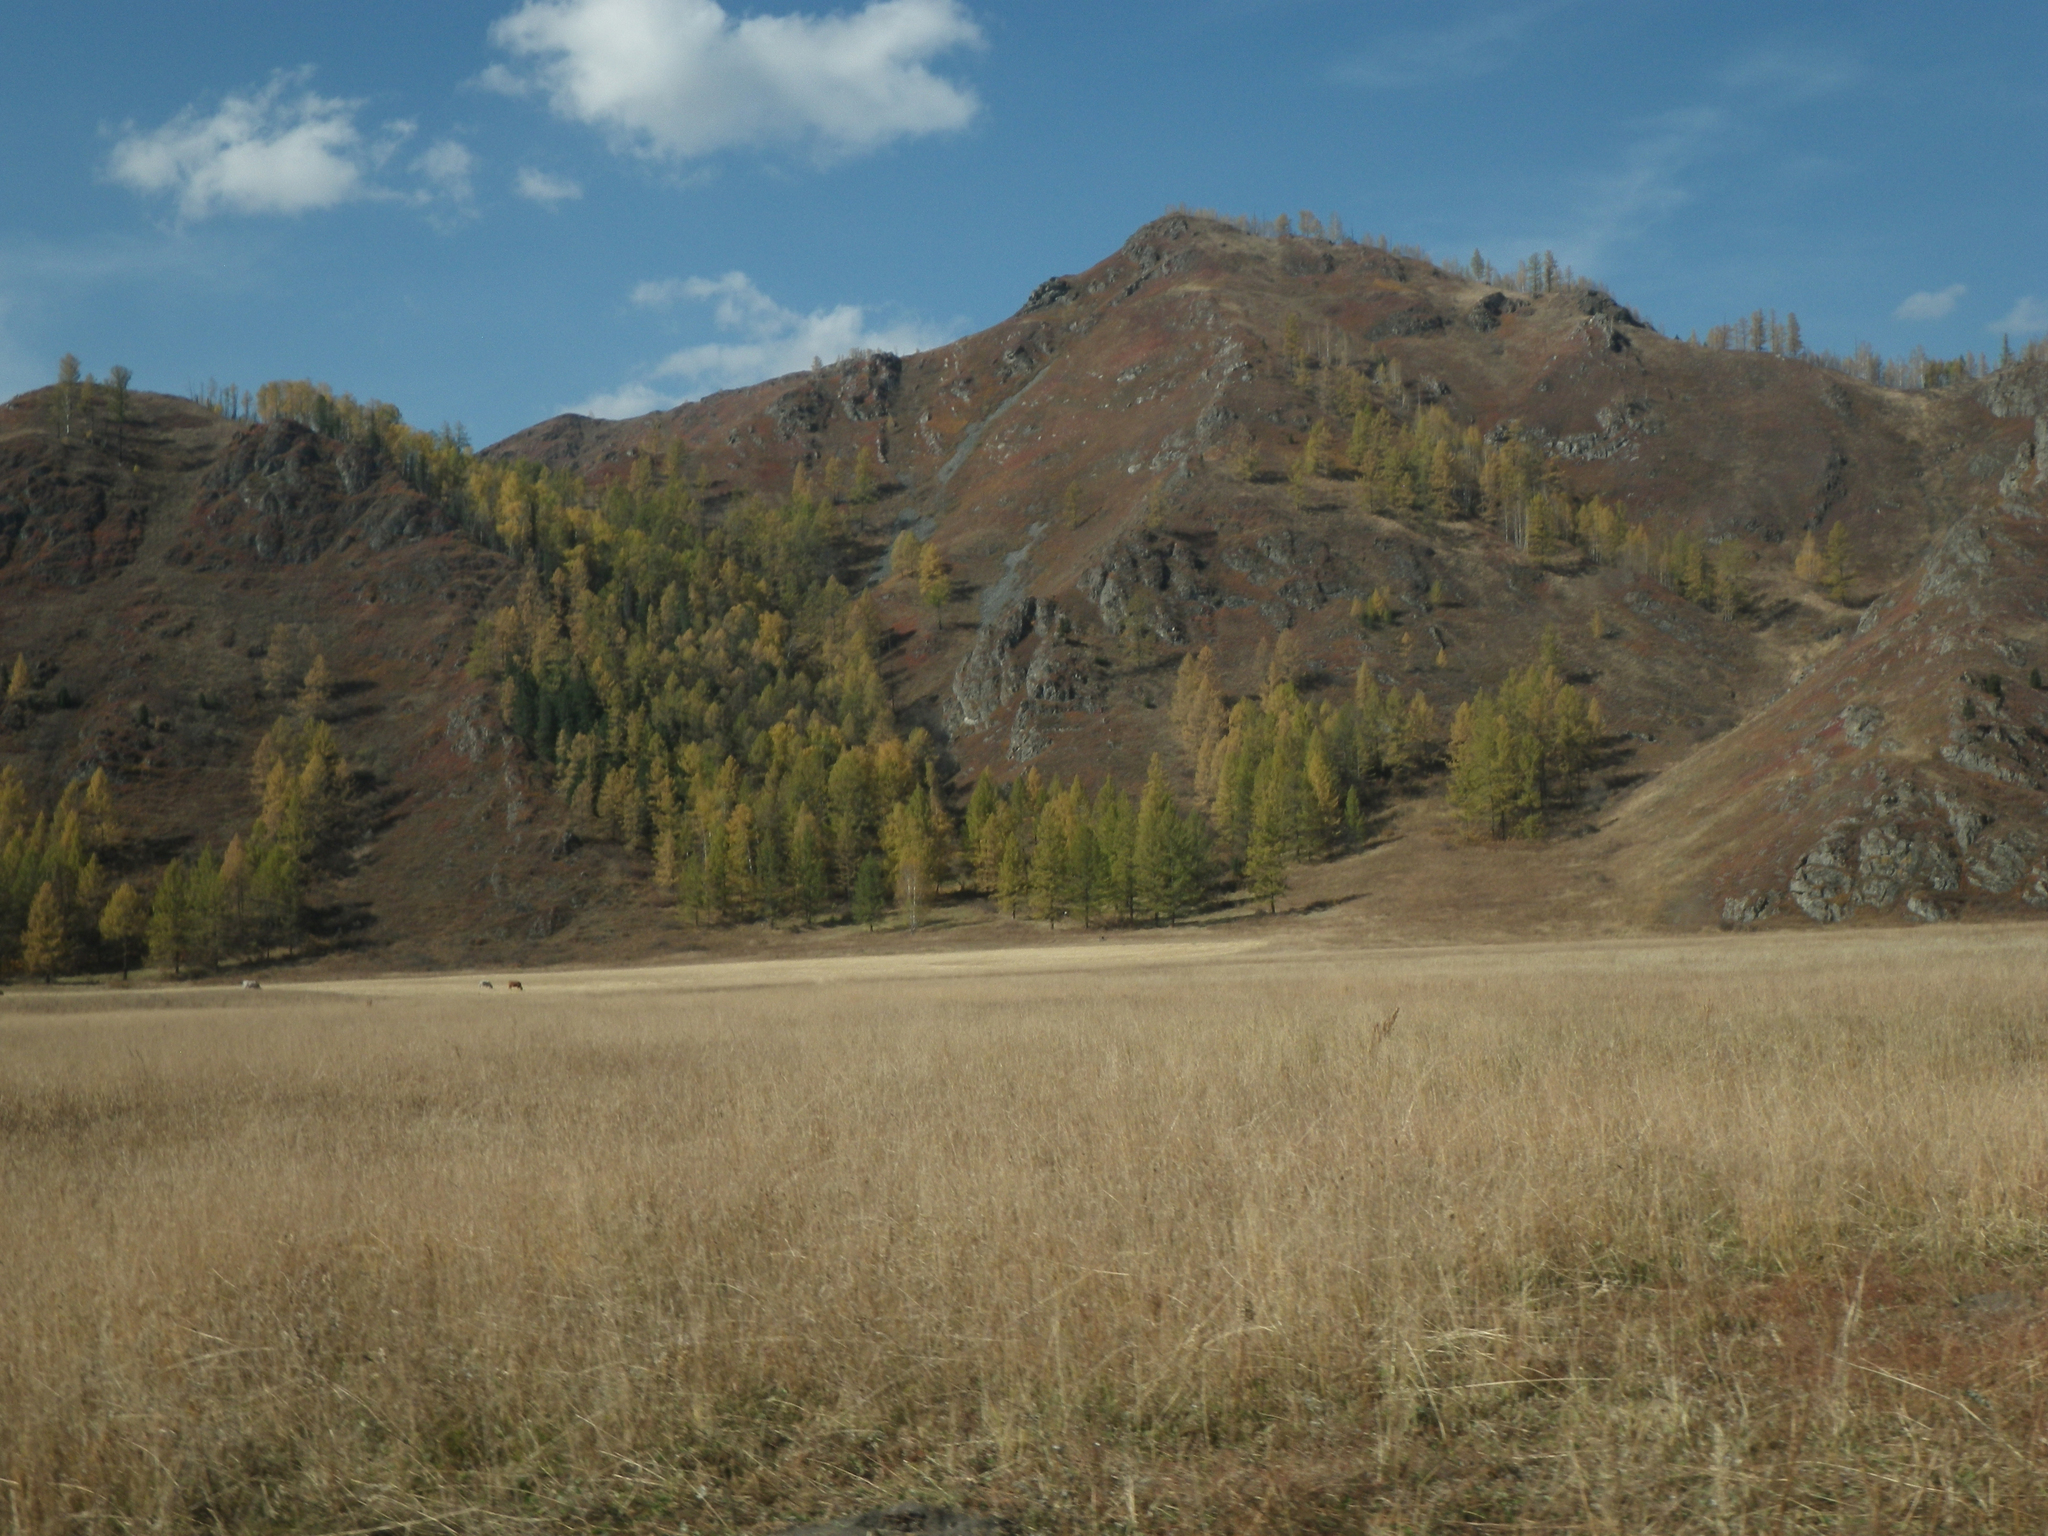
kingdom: Plantae
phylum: Tracheophyta
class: Pinopsida
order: Pinales
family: Pinaceae
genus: Larix
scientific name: Larix sibirica
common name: Siberian larch
